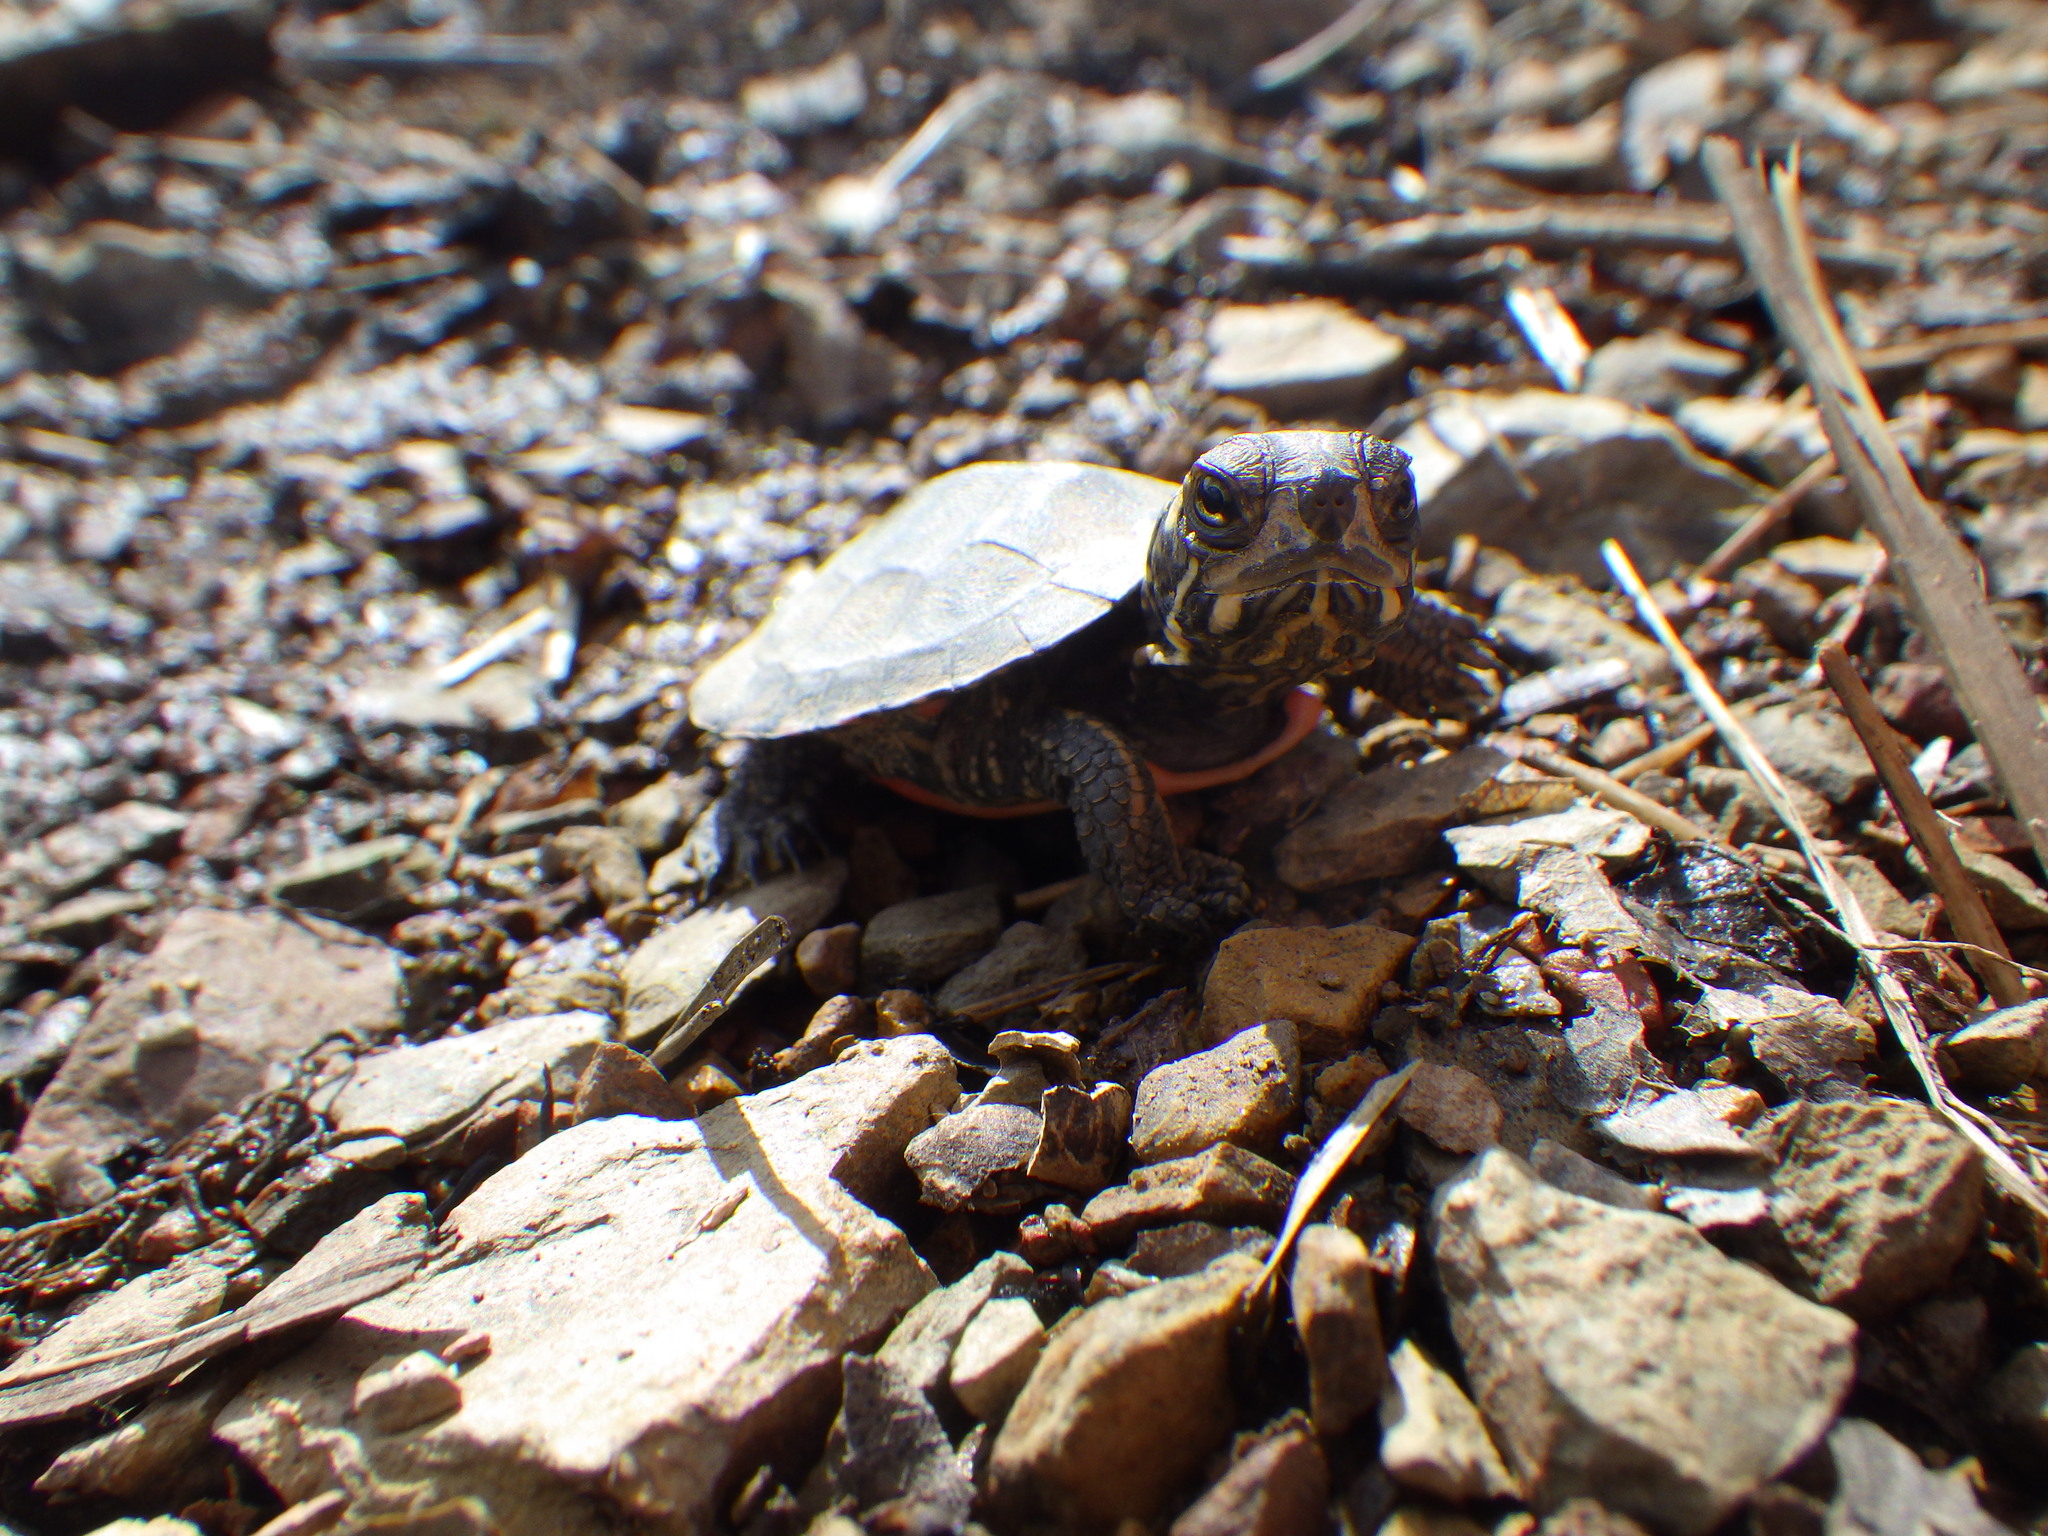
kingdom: Animalia
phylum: Chordata
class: Testudines
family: Emydidae
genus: Chrysemys
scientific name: Chrysemys picta
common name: Painted turtle
